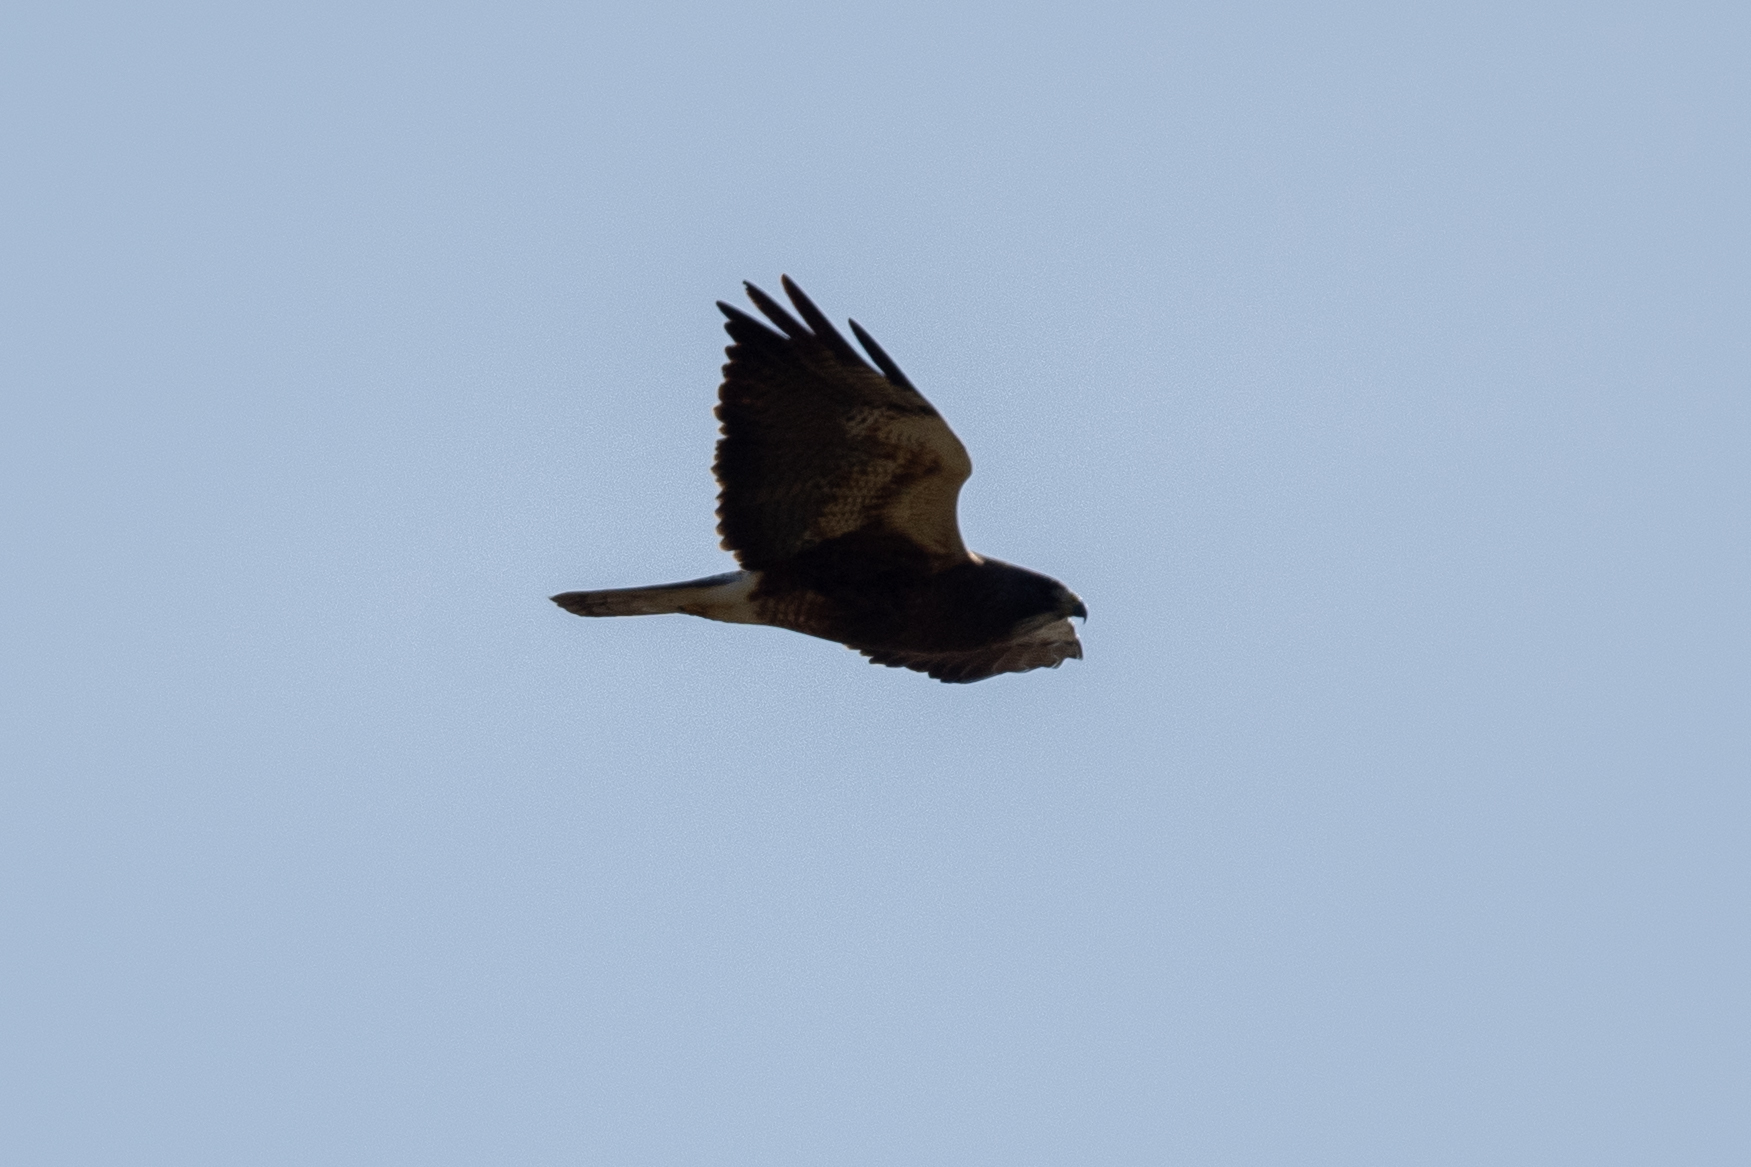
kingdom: Animalia
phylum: Chordata
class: Aves
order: Accipitriformes
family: Accipitridae
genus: Buteo
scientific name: Buteo swainsoni
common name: Swainson's hawk
